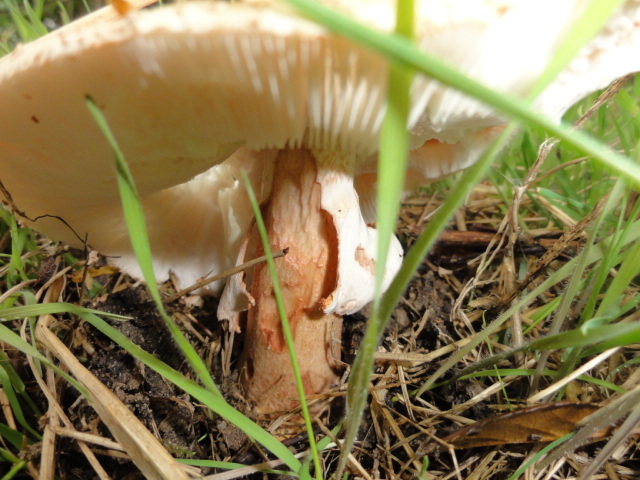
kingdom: Fungi
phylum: Basidiomycota
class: Agaricomycetes
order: Agaricales
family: Amanitaceae
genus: Amanita
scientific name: Amanita rubescens
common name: Blusher
